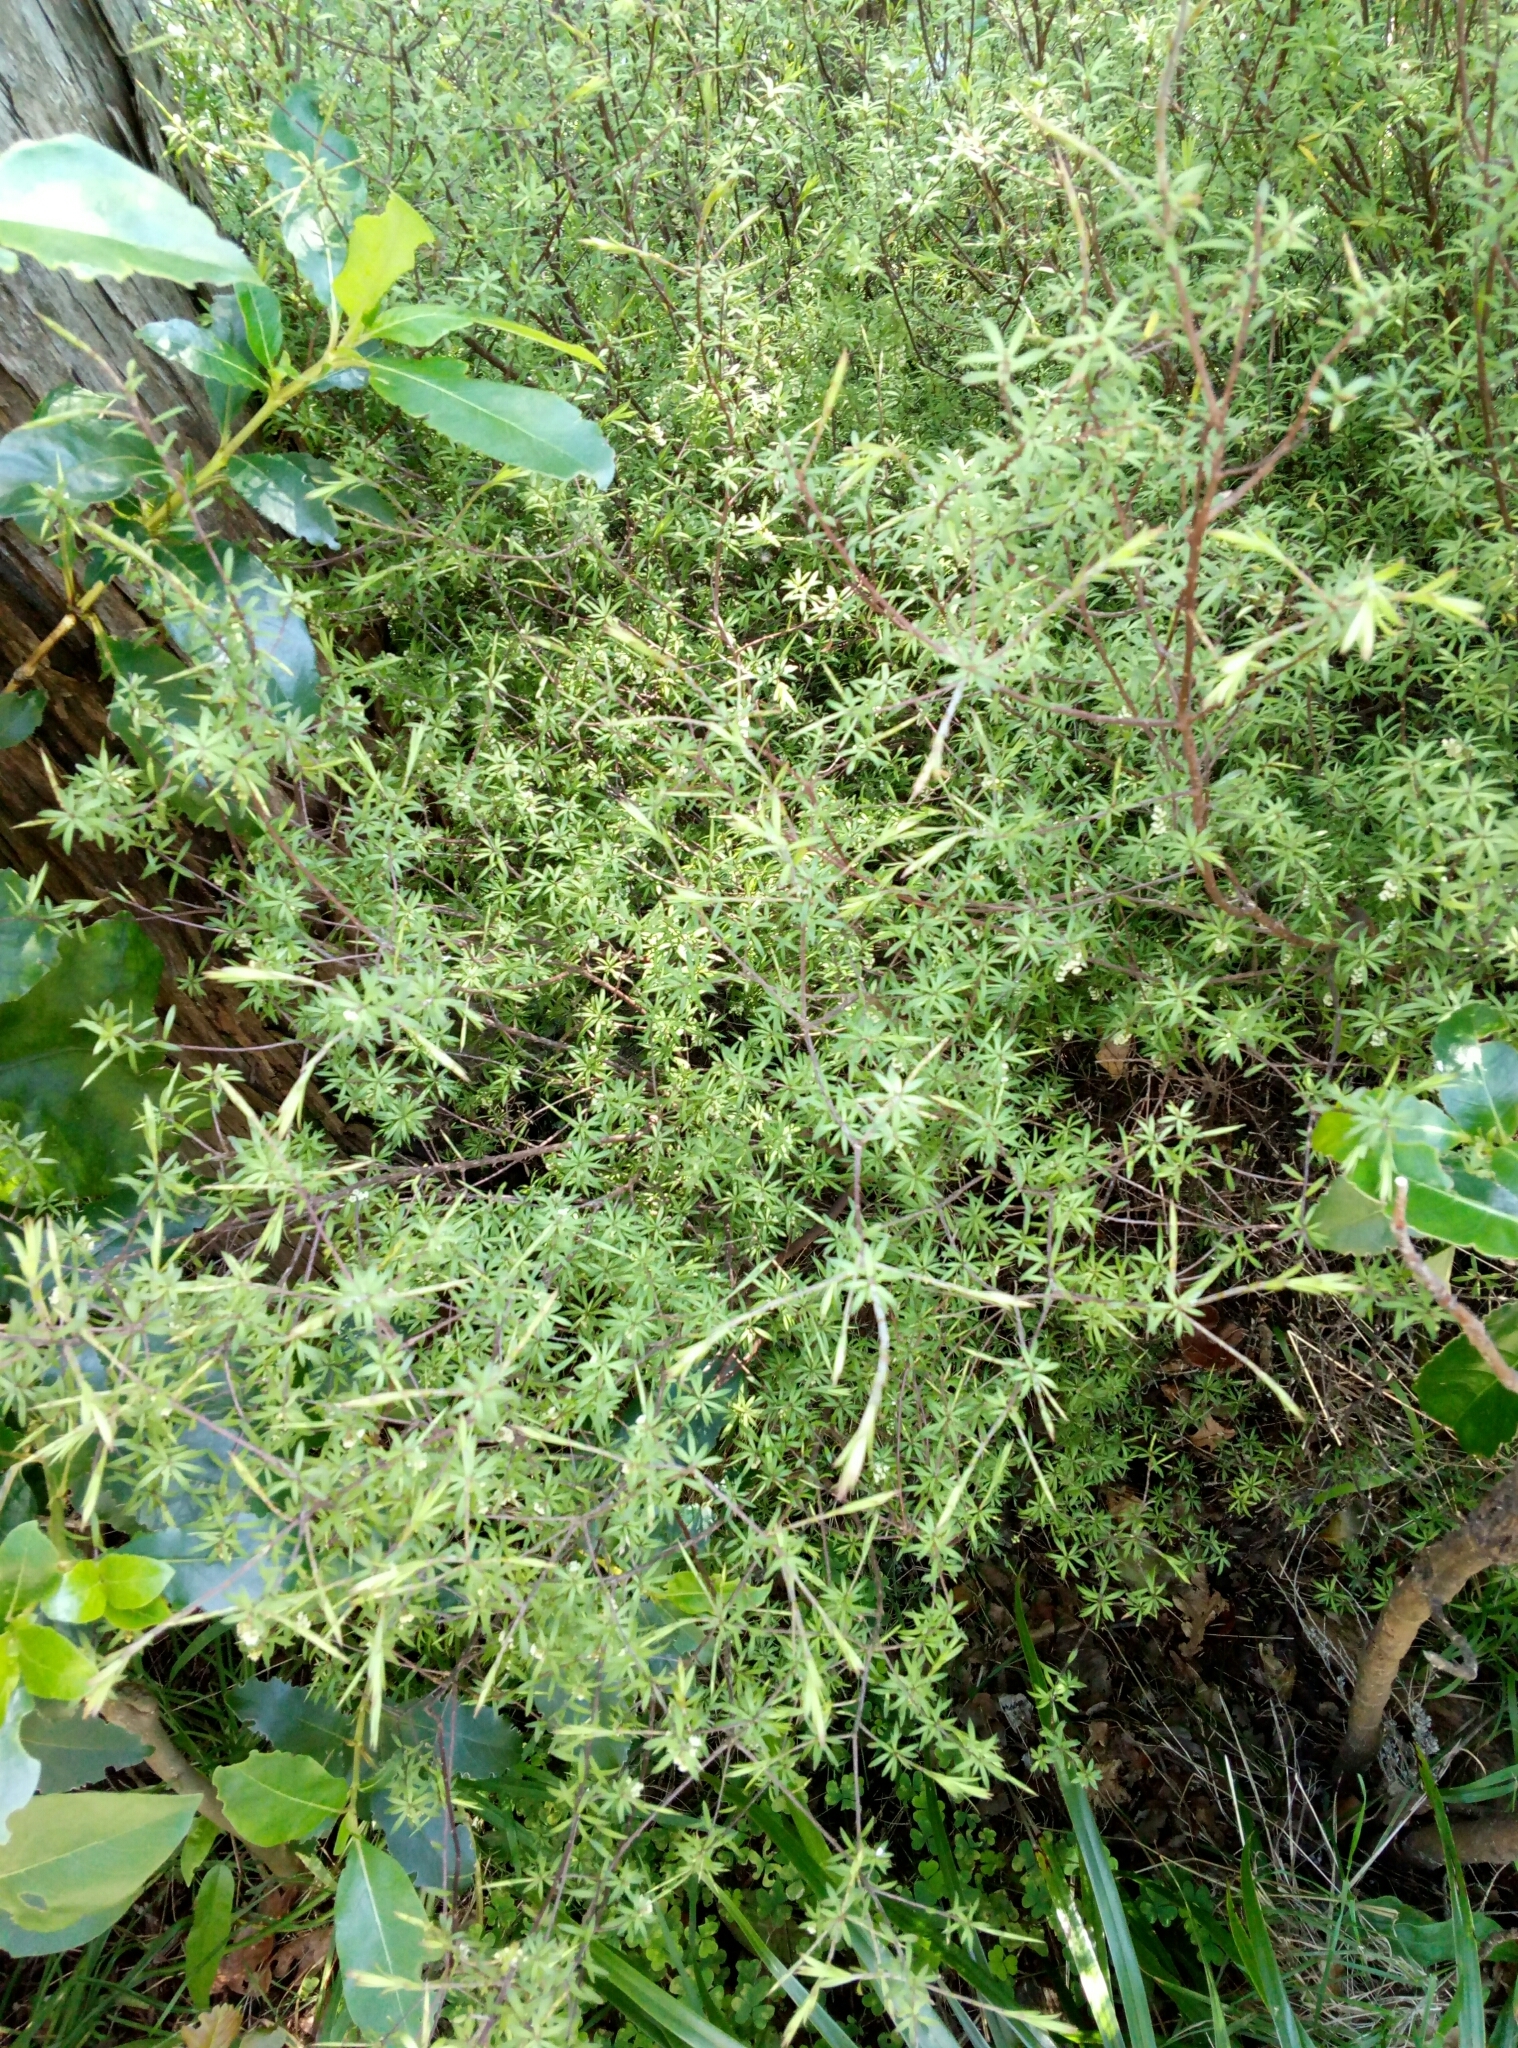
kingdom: Plantae
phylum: Tracheophyta
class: Magnoliopsida
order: Ericales
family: Ericaceae
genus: Leucopogon
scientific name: Leucopogon fasciculatus
